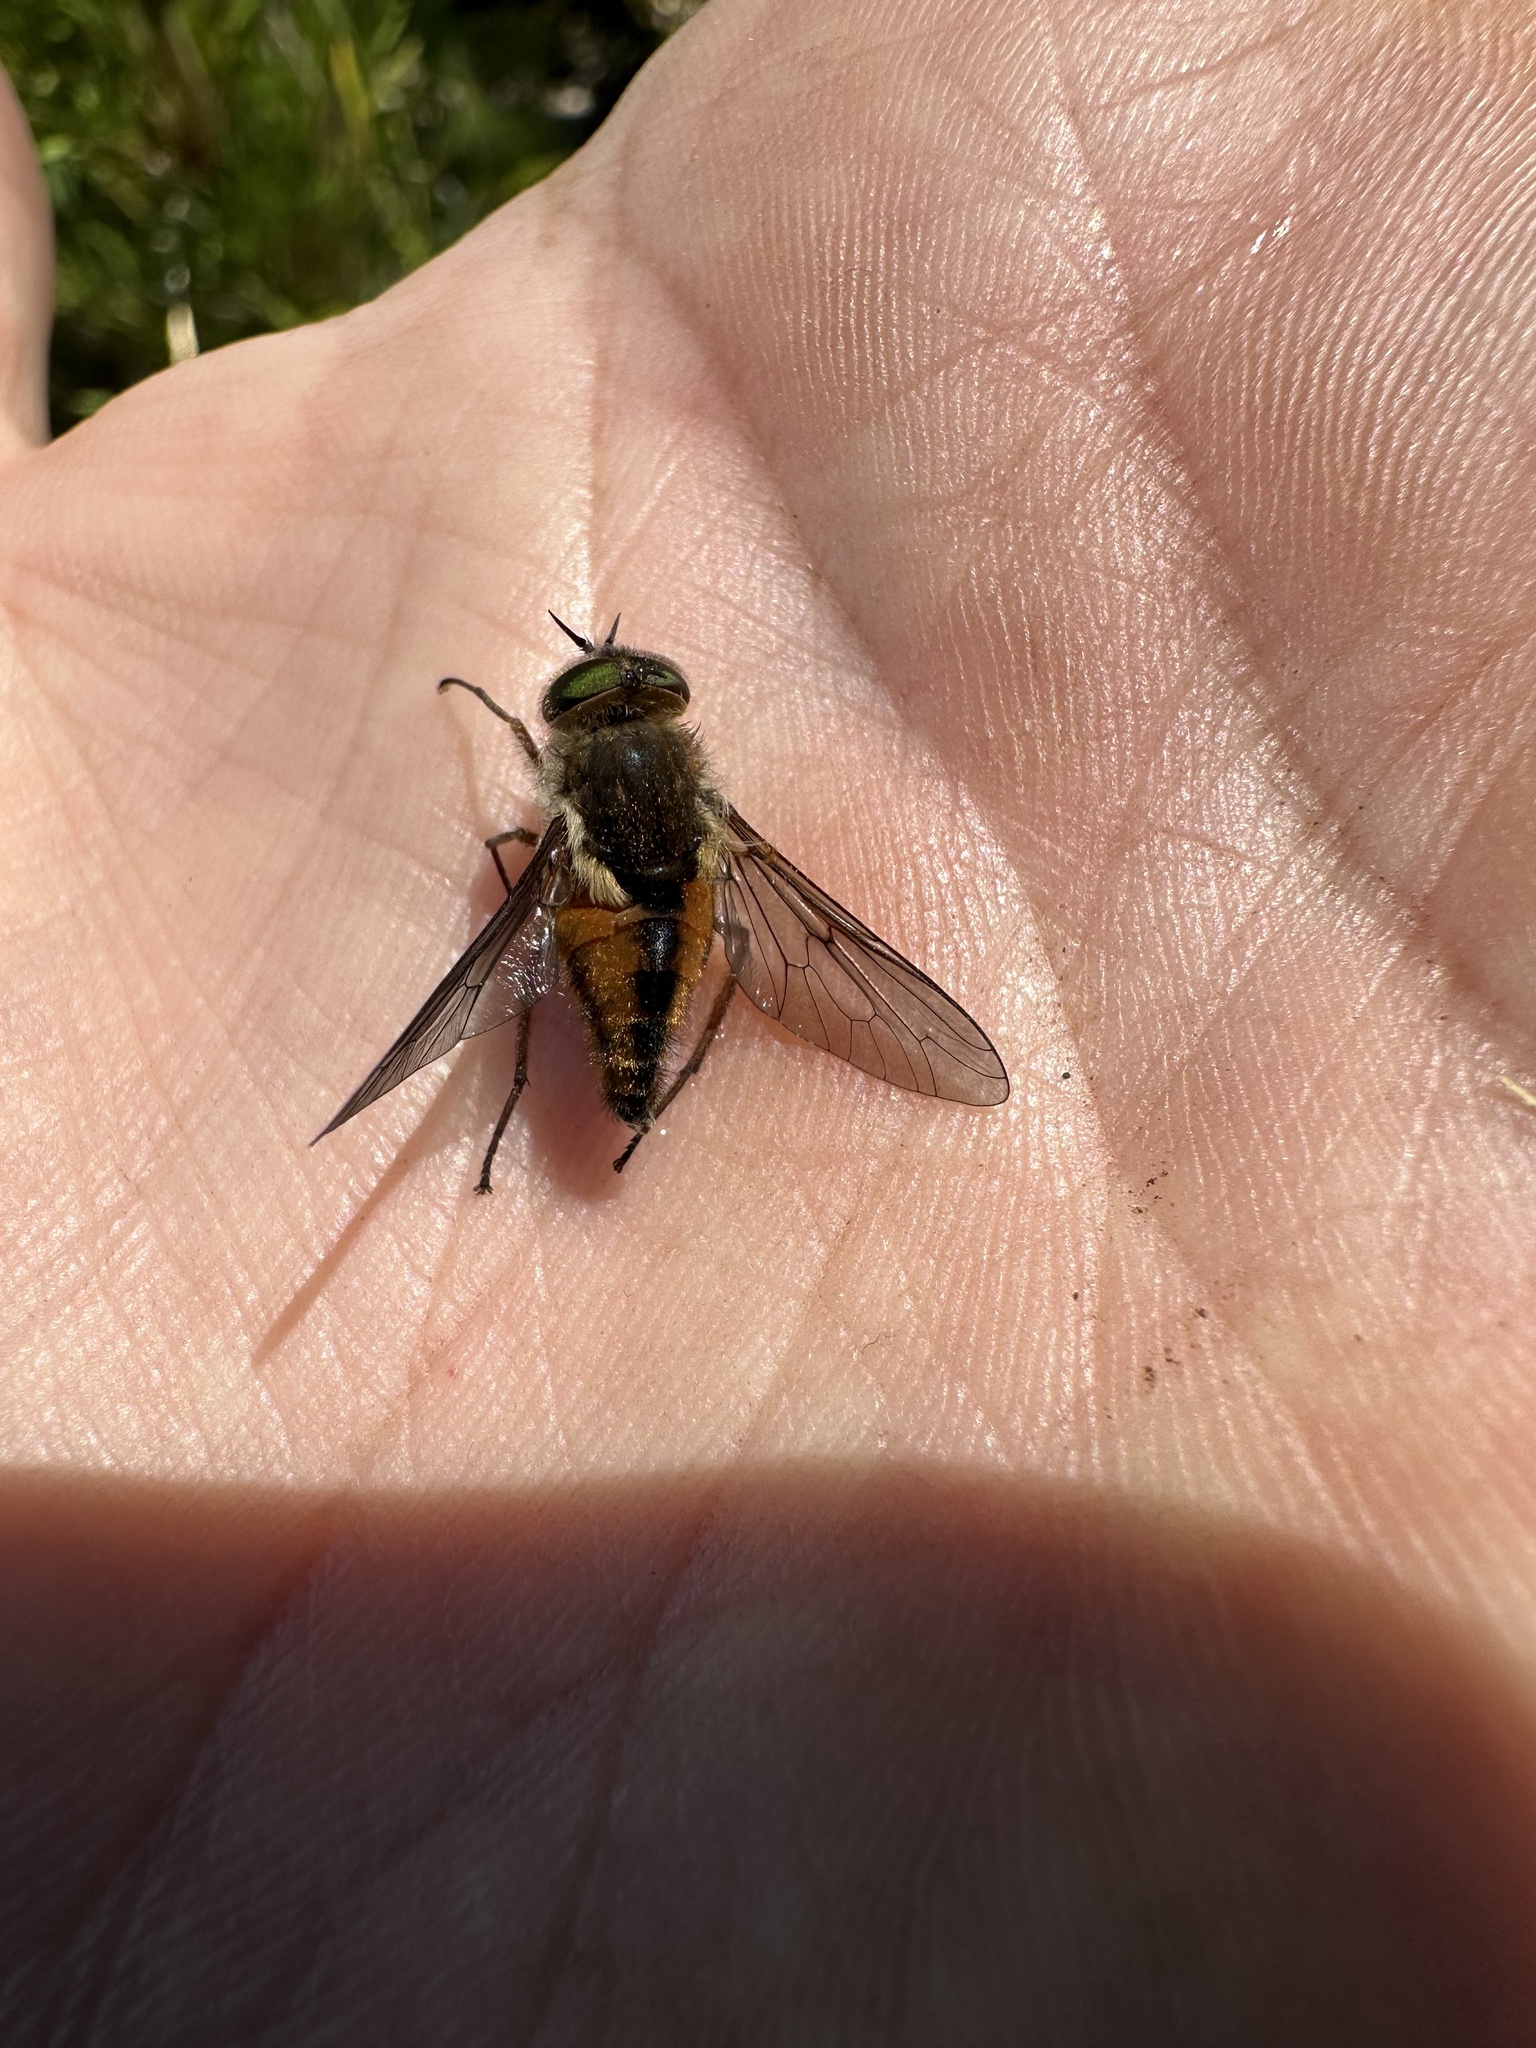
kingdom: Animalia
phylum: Arthropoda
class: Insecta
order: Diptera
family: Tabanidae
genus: Scaptia
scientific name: Scaptia
